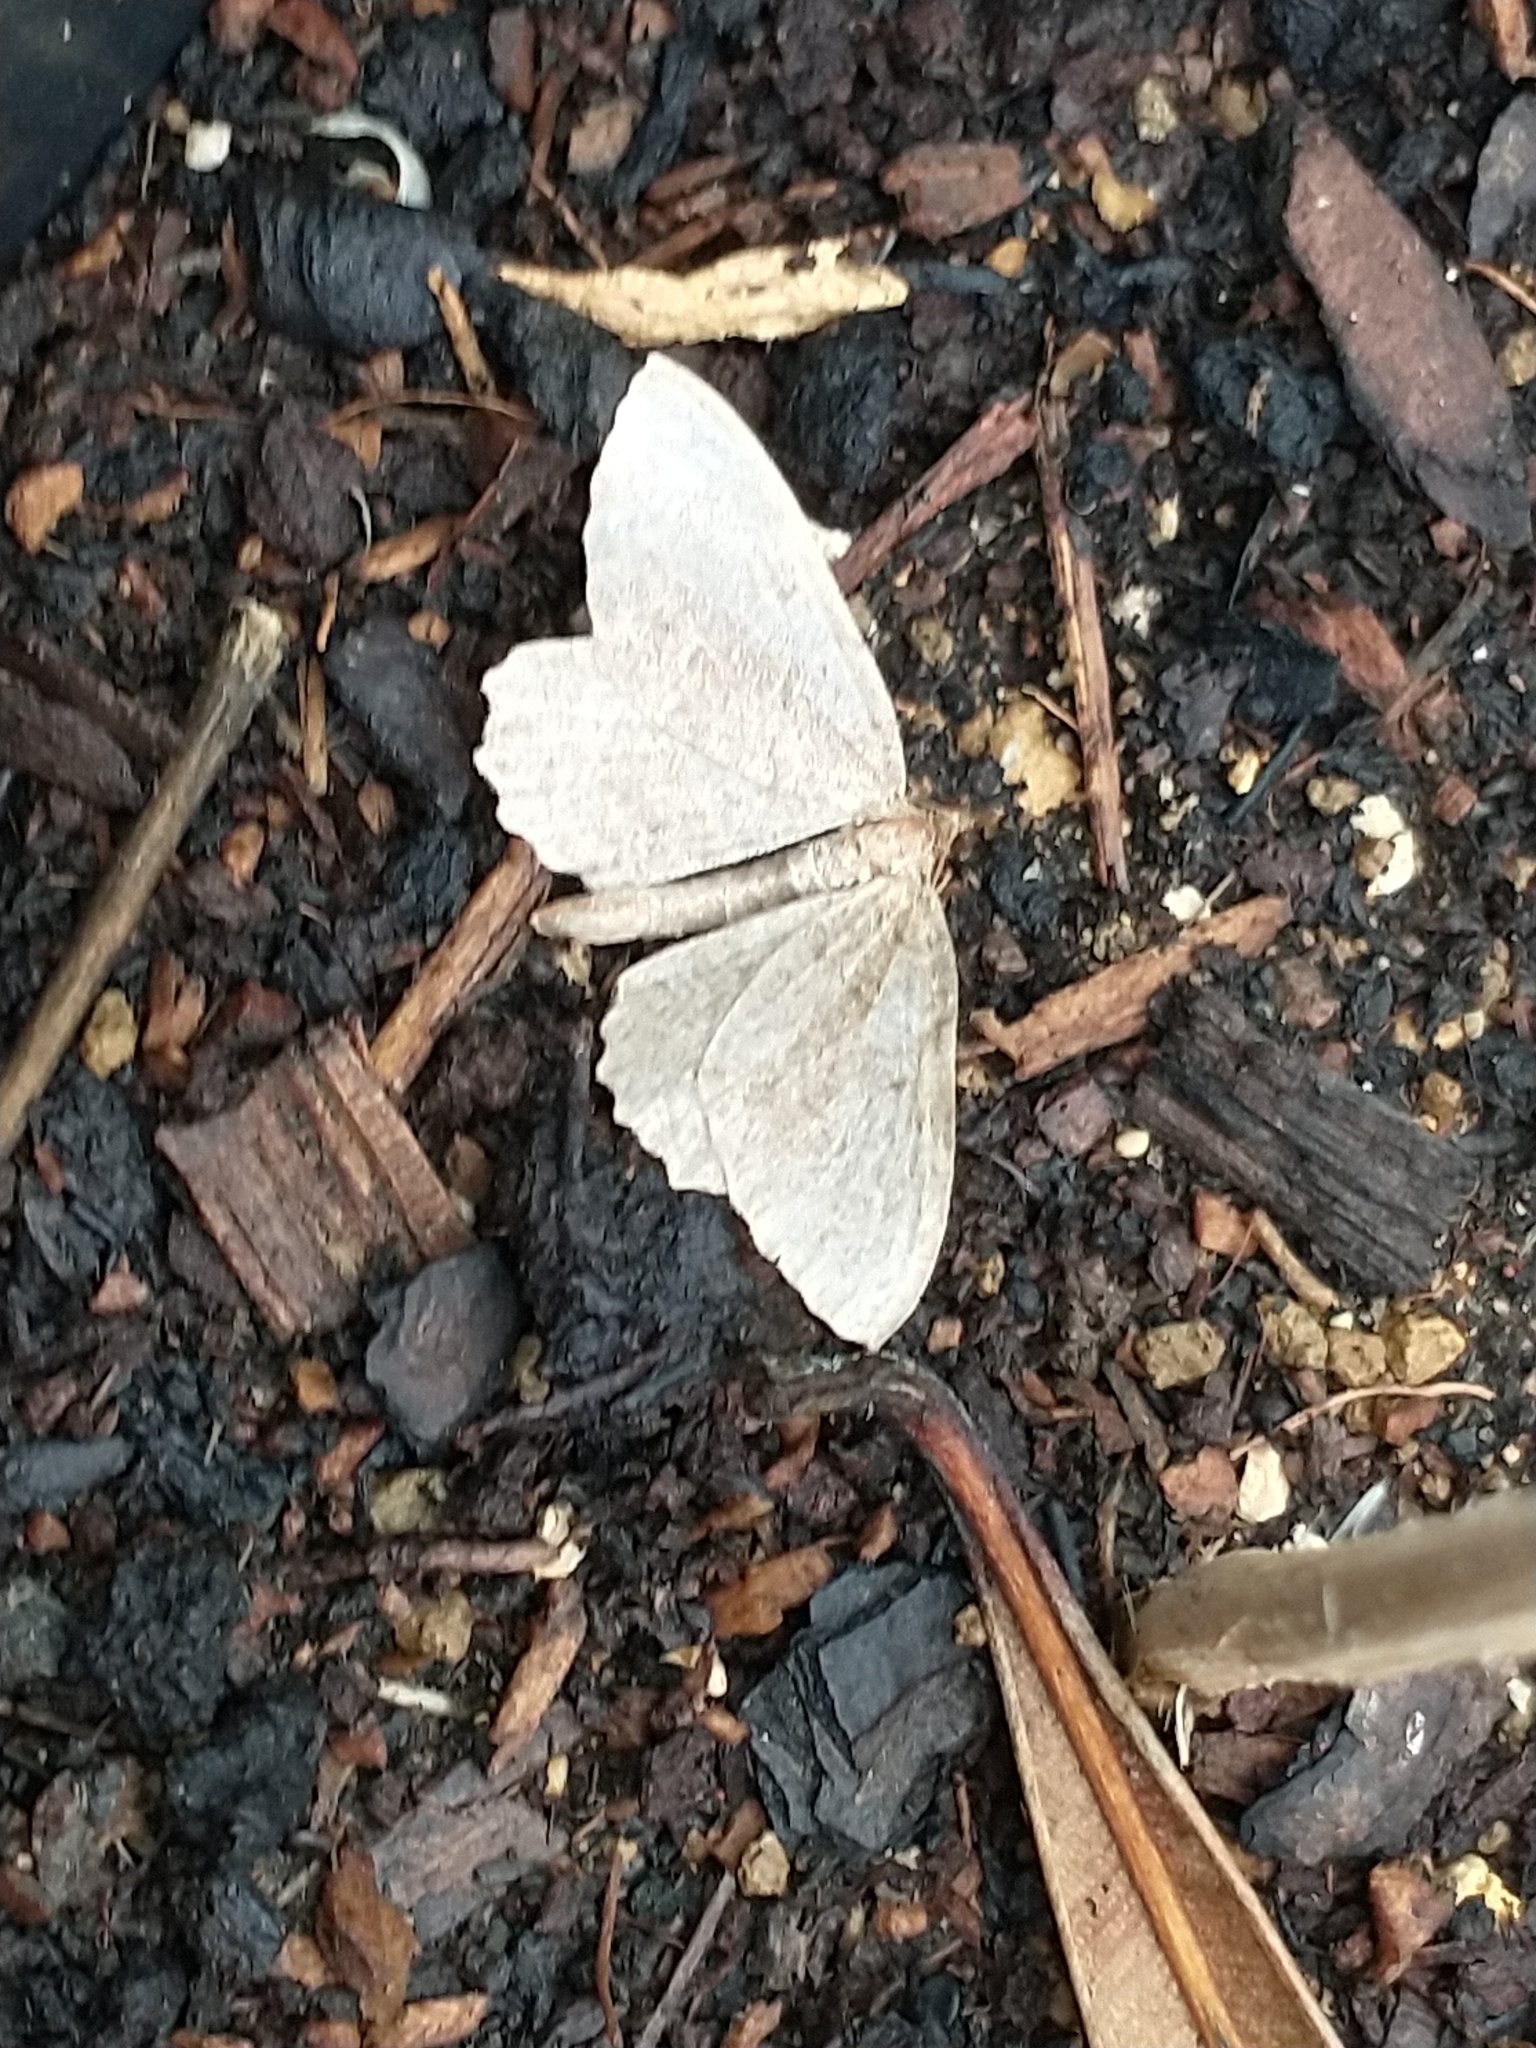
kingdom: Animalia
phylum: Arthropoda
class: Insecta
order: Lepidoptera
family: Geometridae
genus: Philereme
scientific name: Philereme vetulata
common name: Brown scallop
